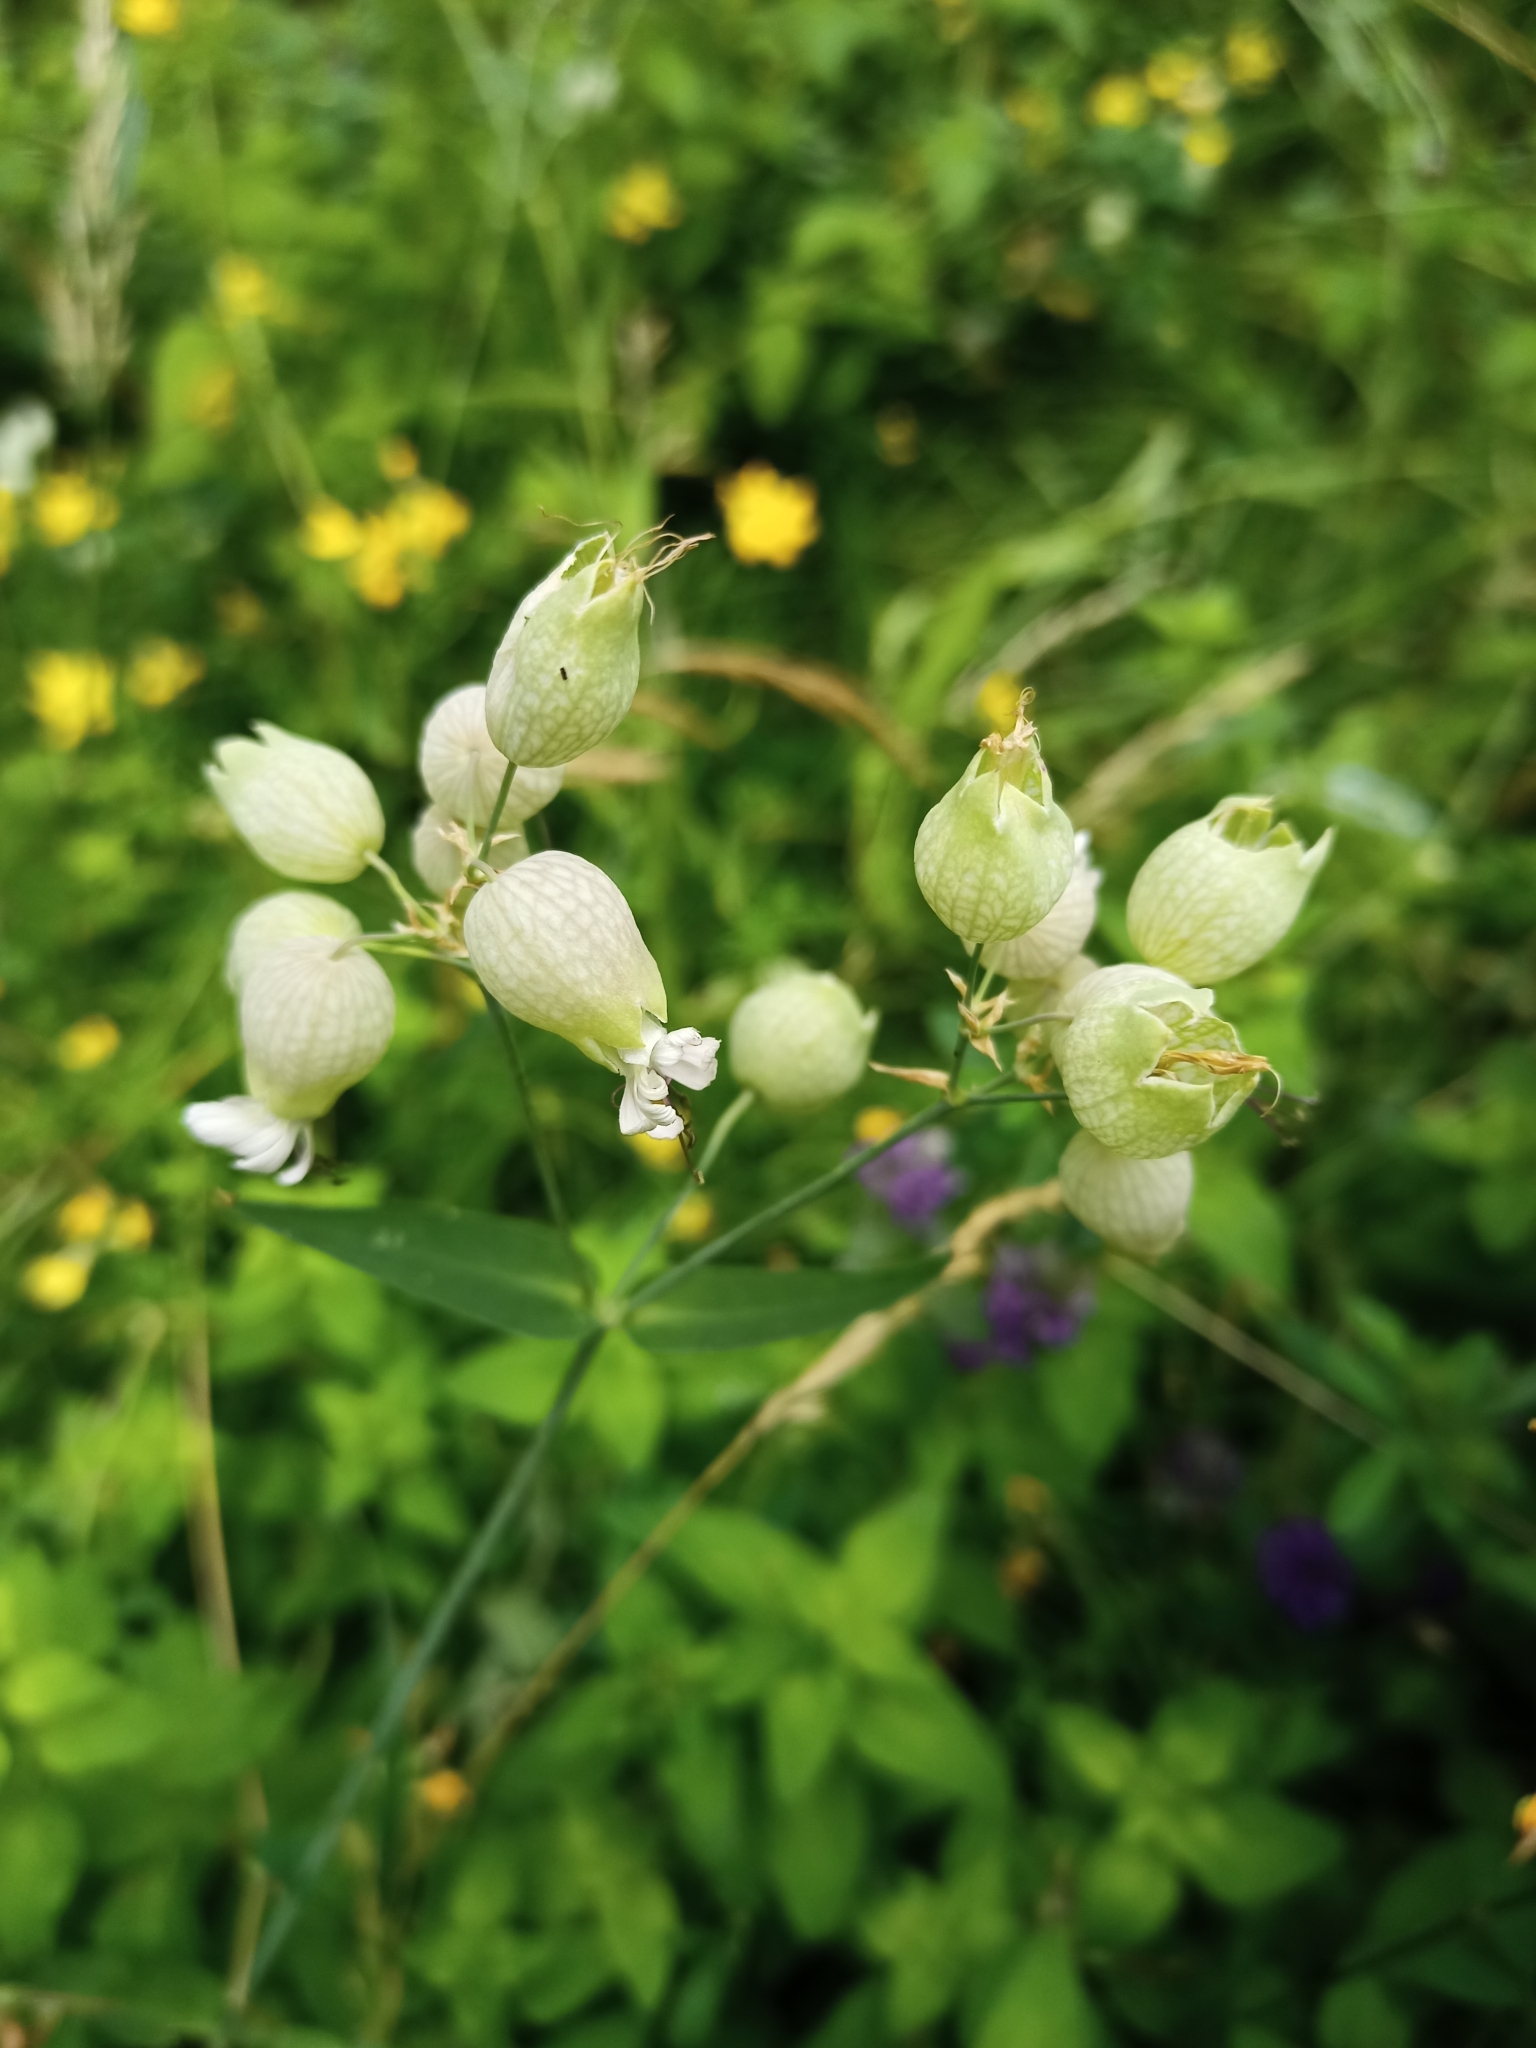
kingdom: Plantae
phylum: Tracheophyta
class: Magnoliopsida
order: Caryophyllales
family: Caryophyllaceae
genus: Silene
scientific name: Silene vulgaris
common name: Bladder campion
